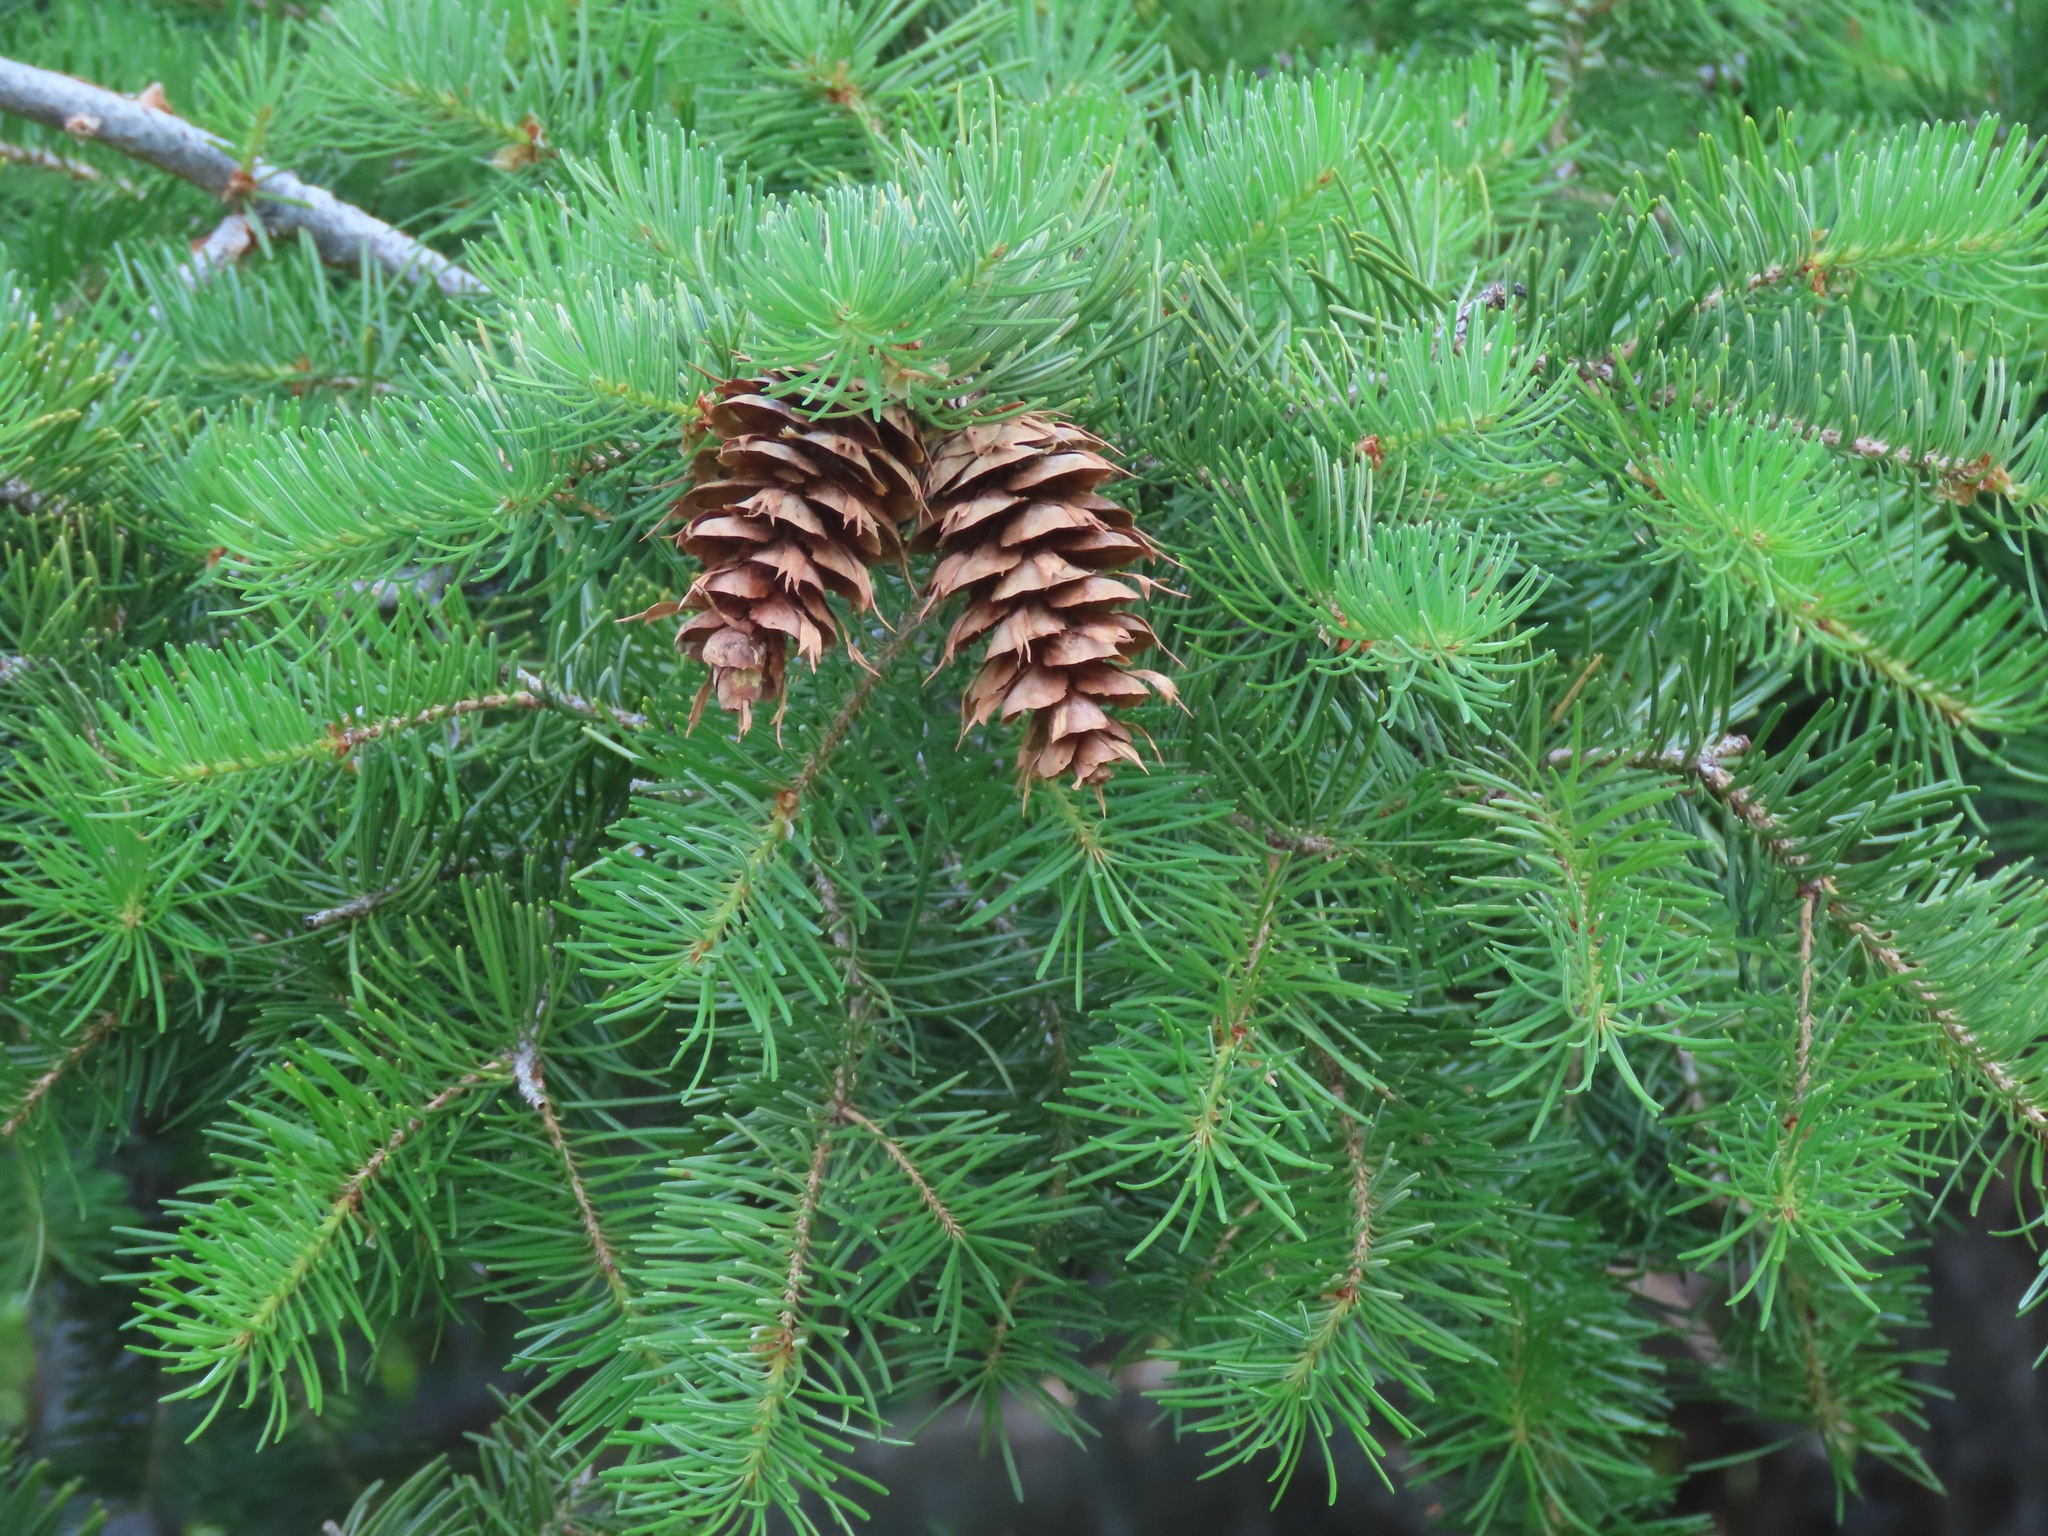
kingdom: Plantae
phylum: Tracheophyta
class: Pinopsida
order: Pinales
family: Pinaceae
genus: Pseudotsuga
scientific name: Pseudotsuga menziesii
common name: Douglas fir
